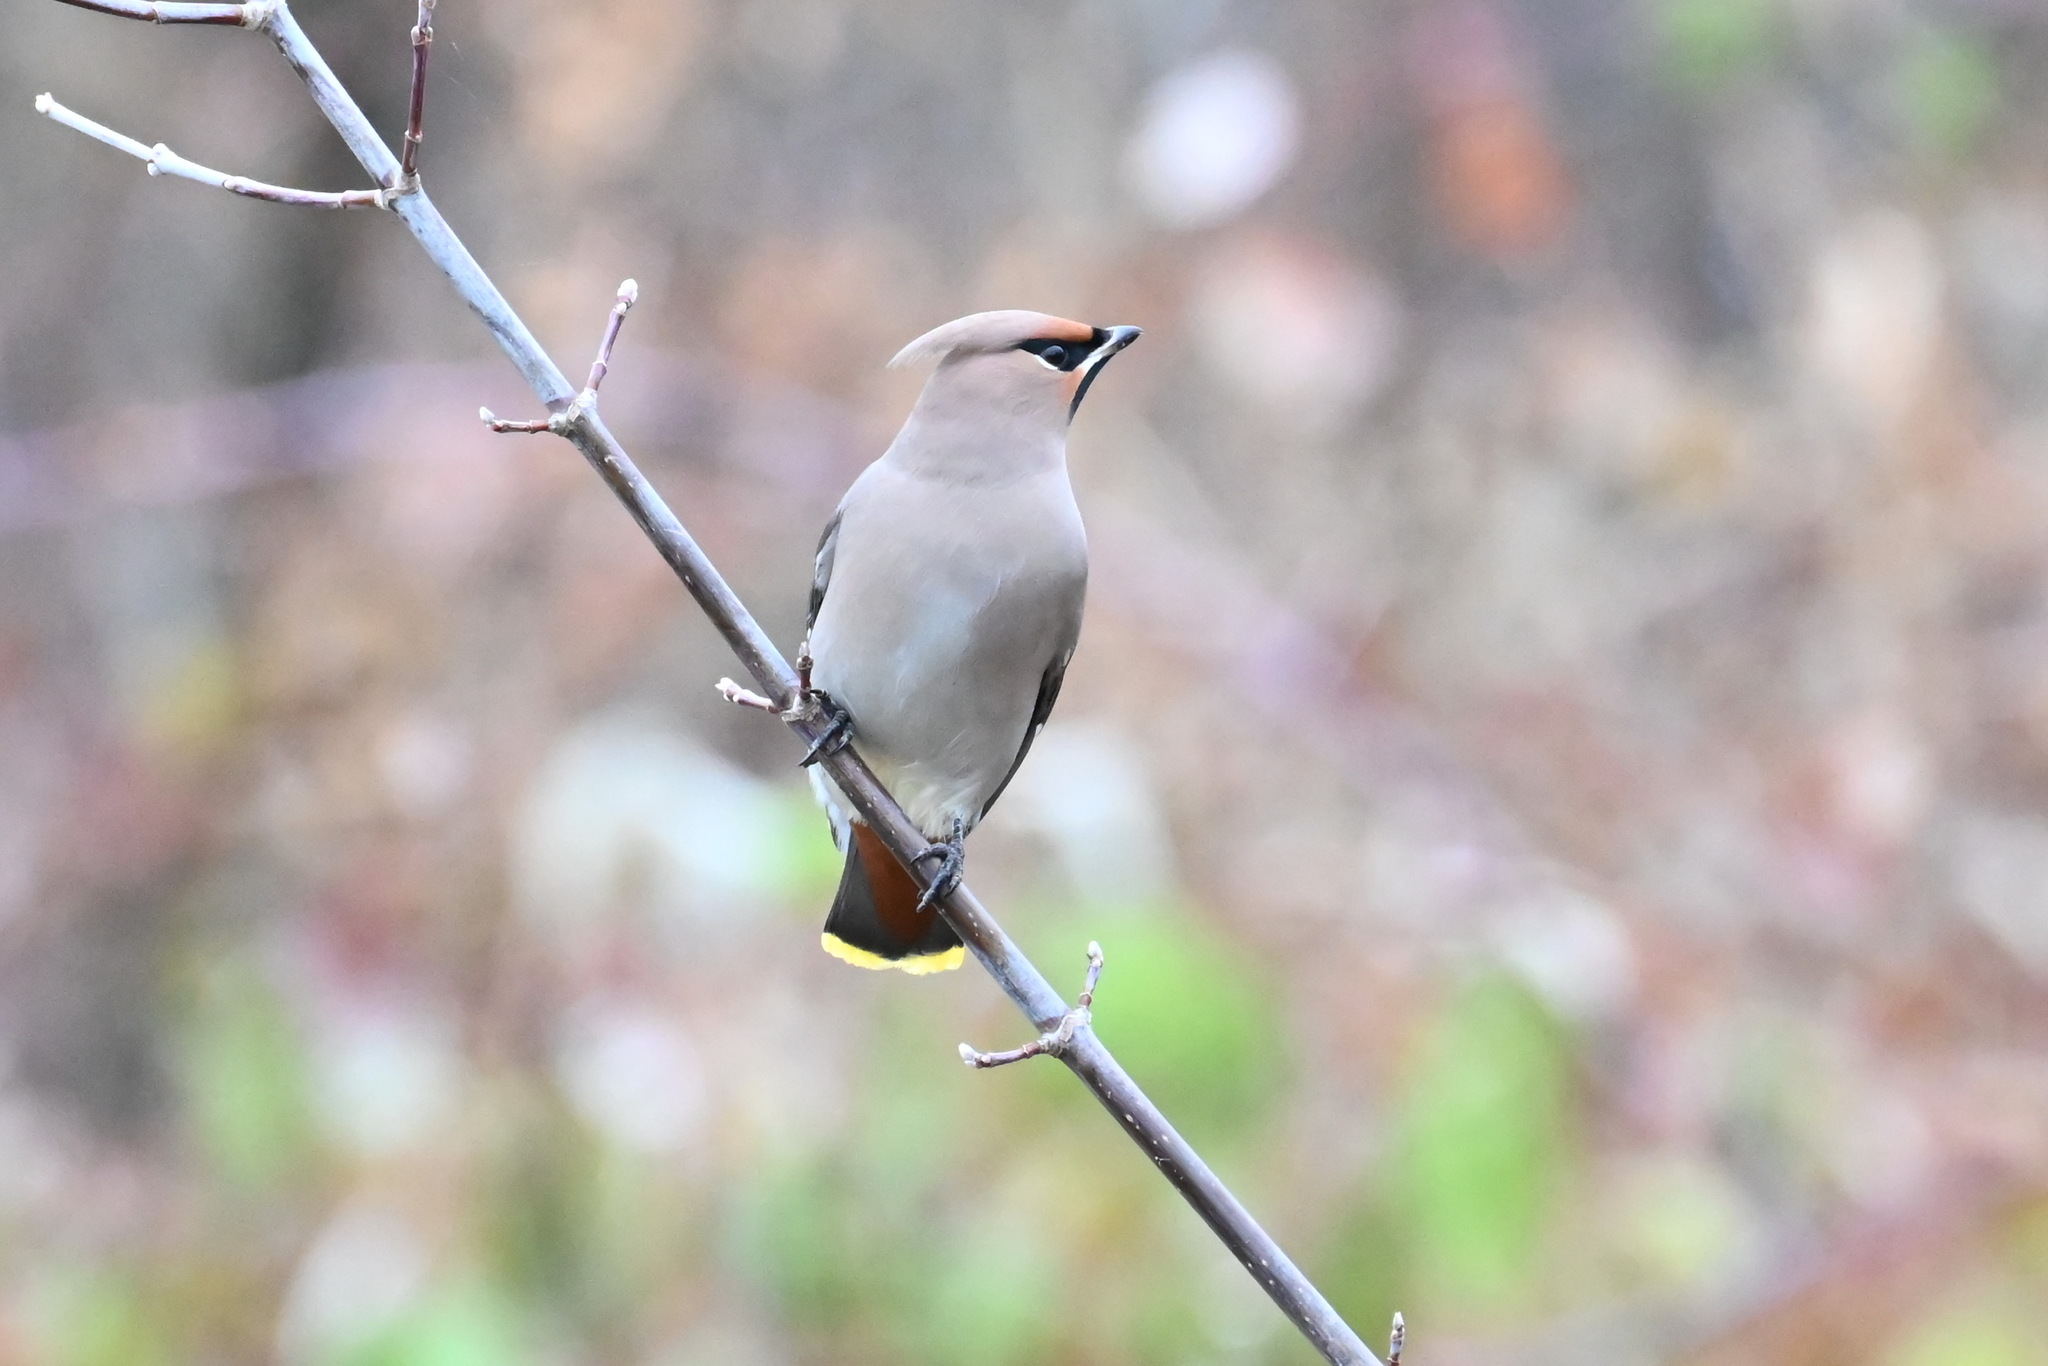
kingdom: Animalia
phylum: Chordata
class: Aves
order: Passeriformes
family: Bombycillidae
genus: Bombycilla
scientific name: Bombycilla garrulus
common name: Bohemian waxwing
